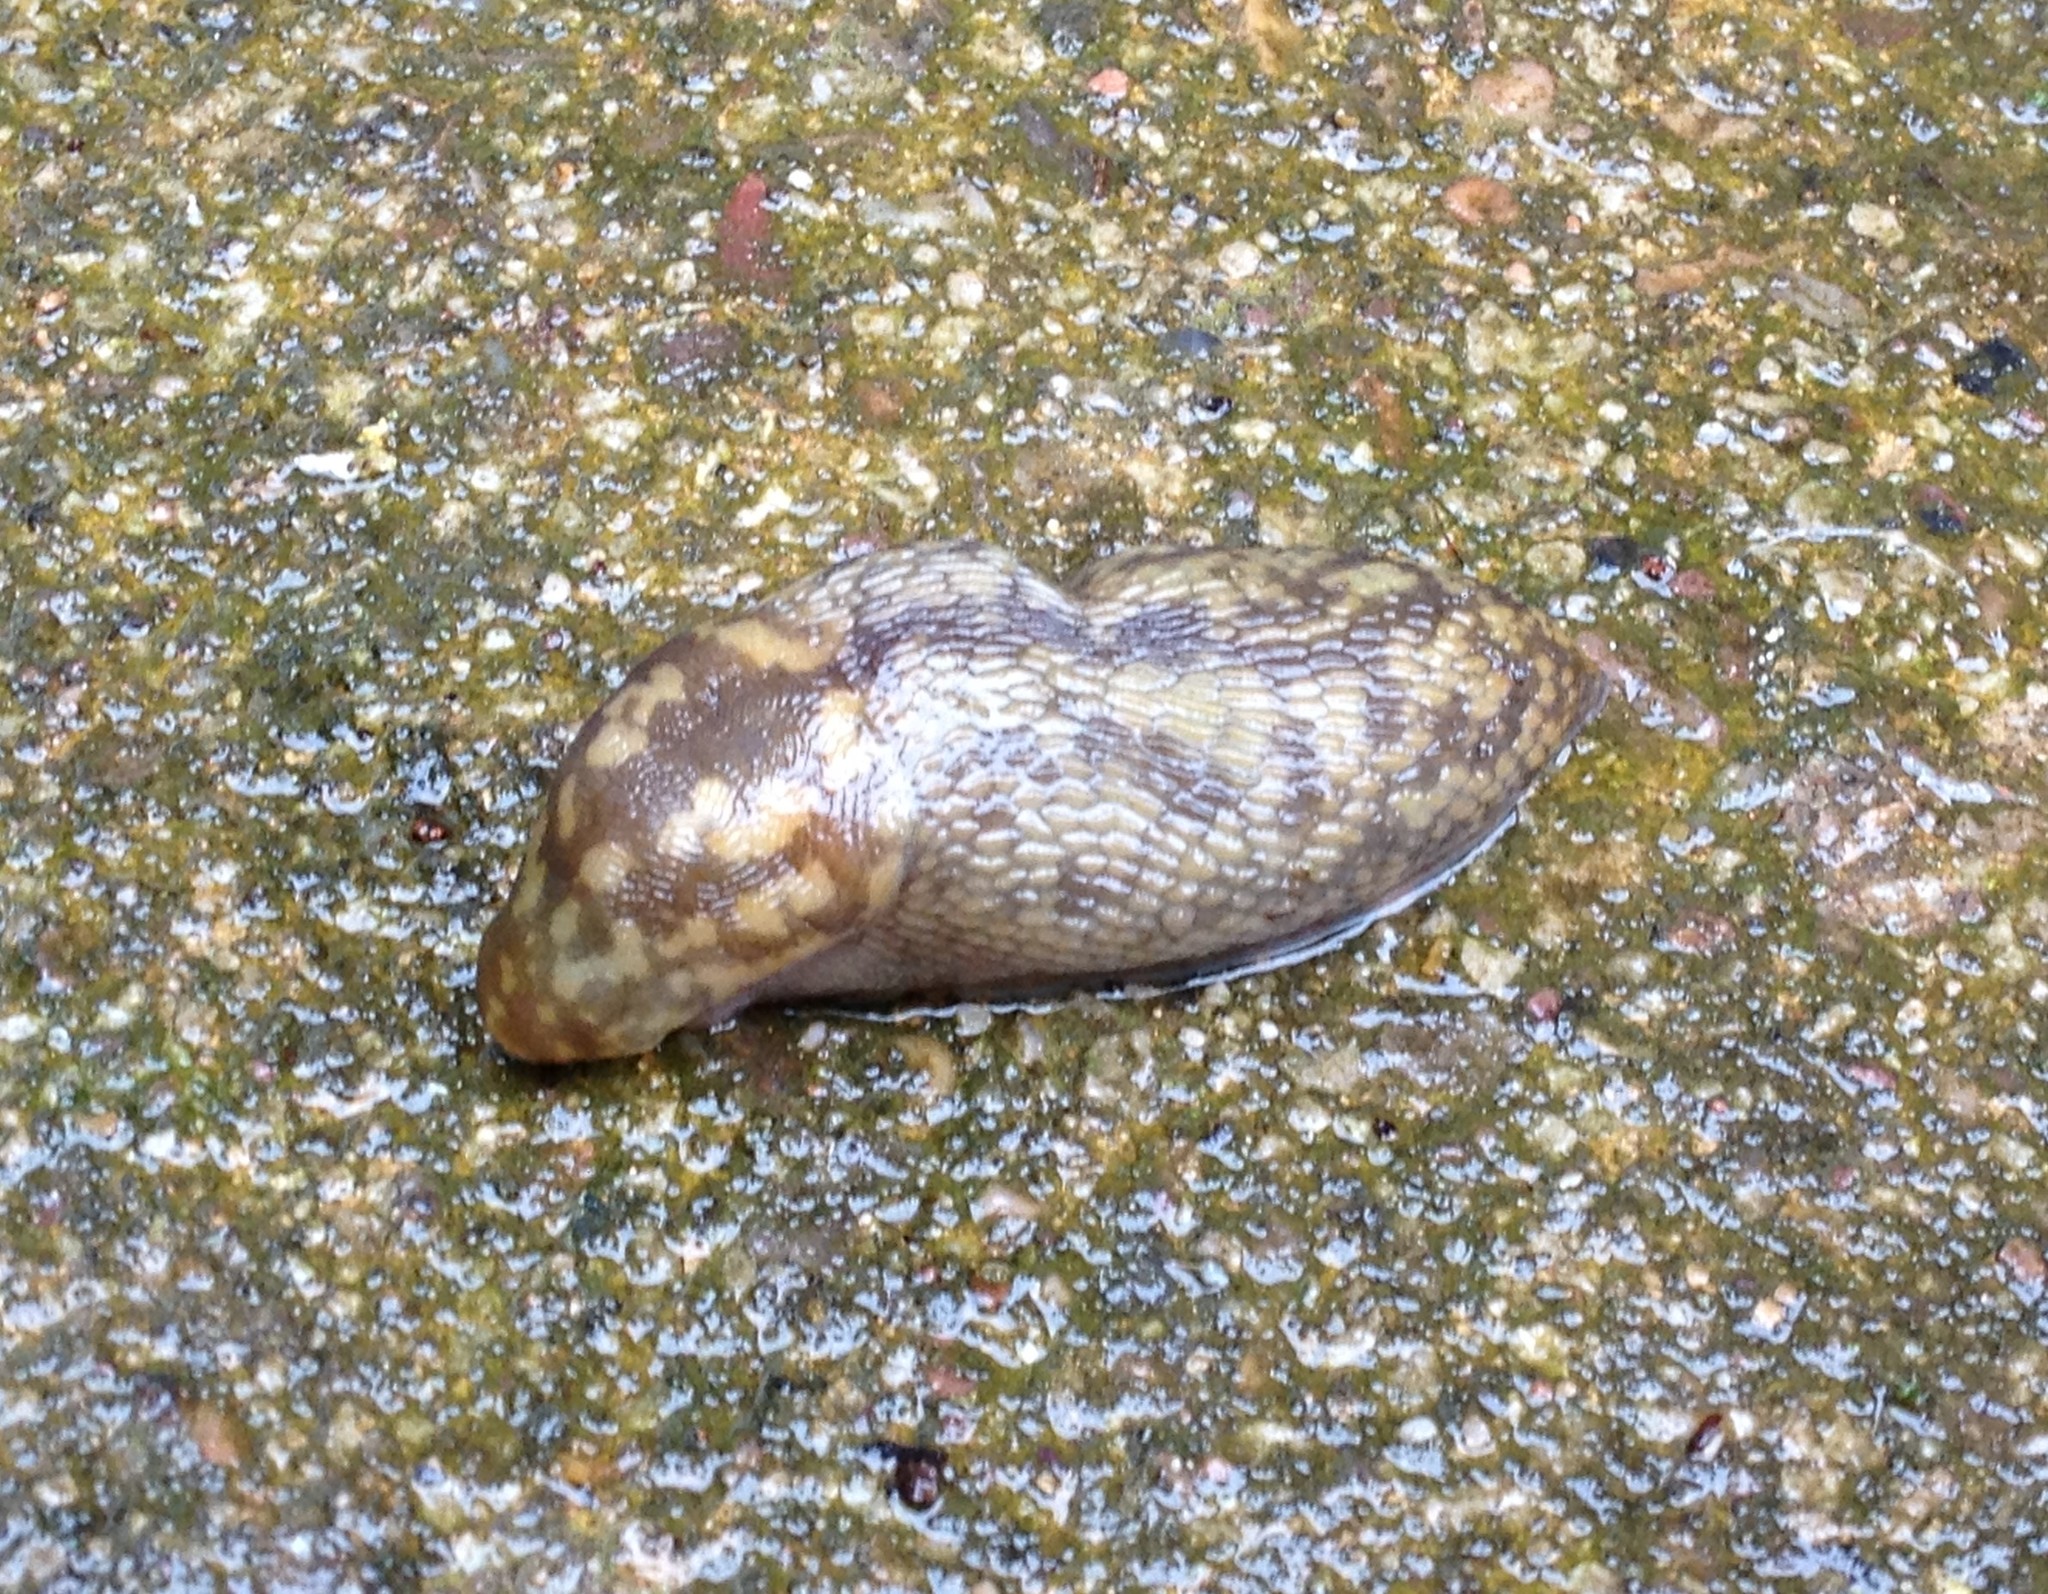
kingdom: Animalia
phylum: Mollusca
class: Gastropoda
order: Stylommatophora
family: Limacidae
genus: Limacus
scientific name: Limacus maculatus
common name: Irish yellow slug
